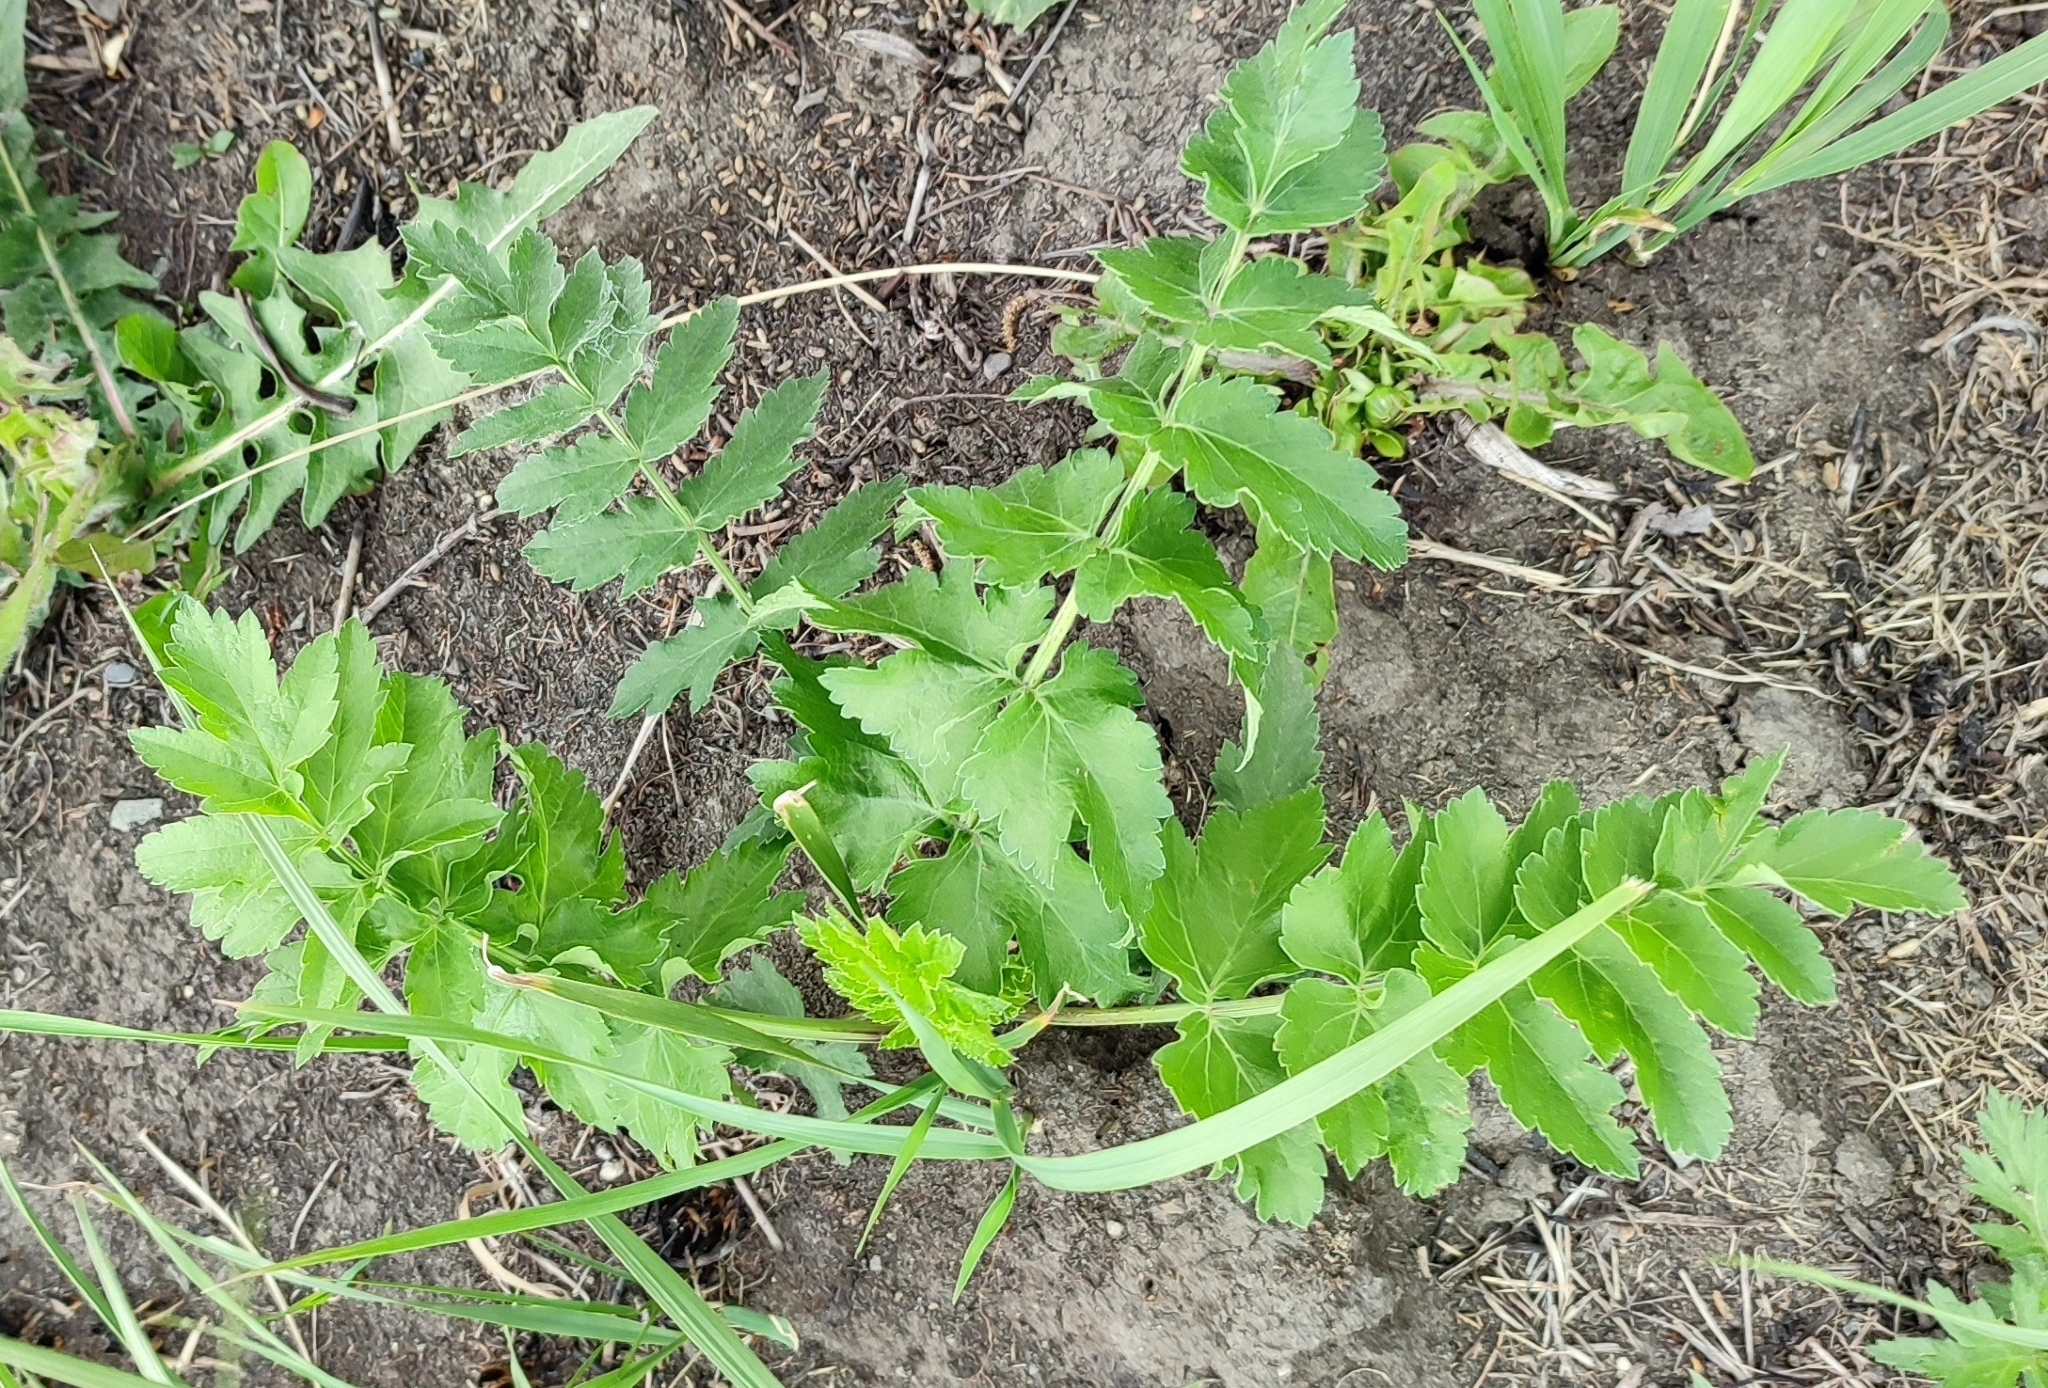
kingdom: Plantae
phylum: Tracheophyta
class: Magnoliopsida
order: Apiales
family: Apiaceae
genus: Pastinaca
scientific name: Pastinaca sativa
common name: Wild parsnip
